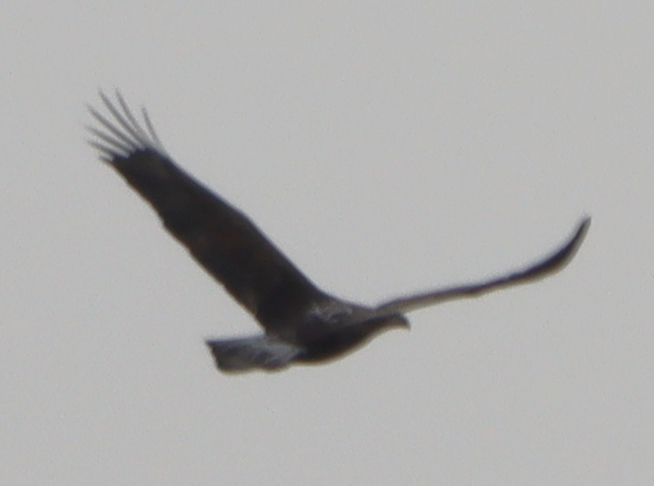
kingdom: Animalia
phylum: Chordata
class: Aves
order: Accipitriformes
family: Accipitridae
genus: Haliaeetus
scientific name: Haliaeetus leucocephalus
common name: Bald eagle
